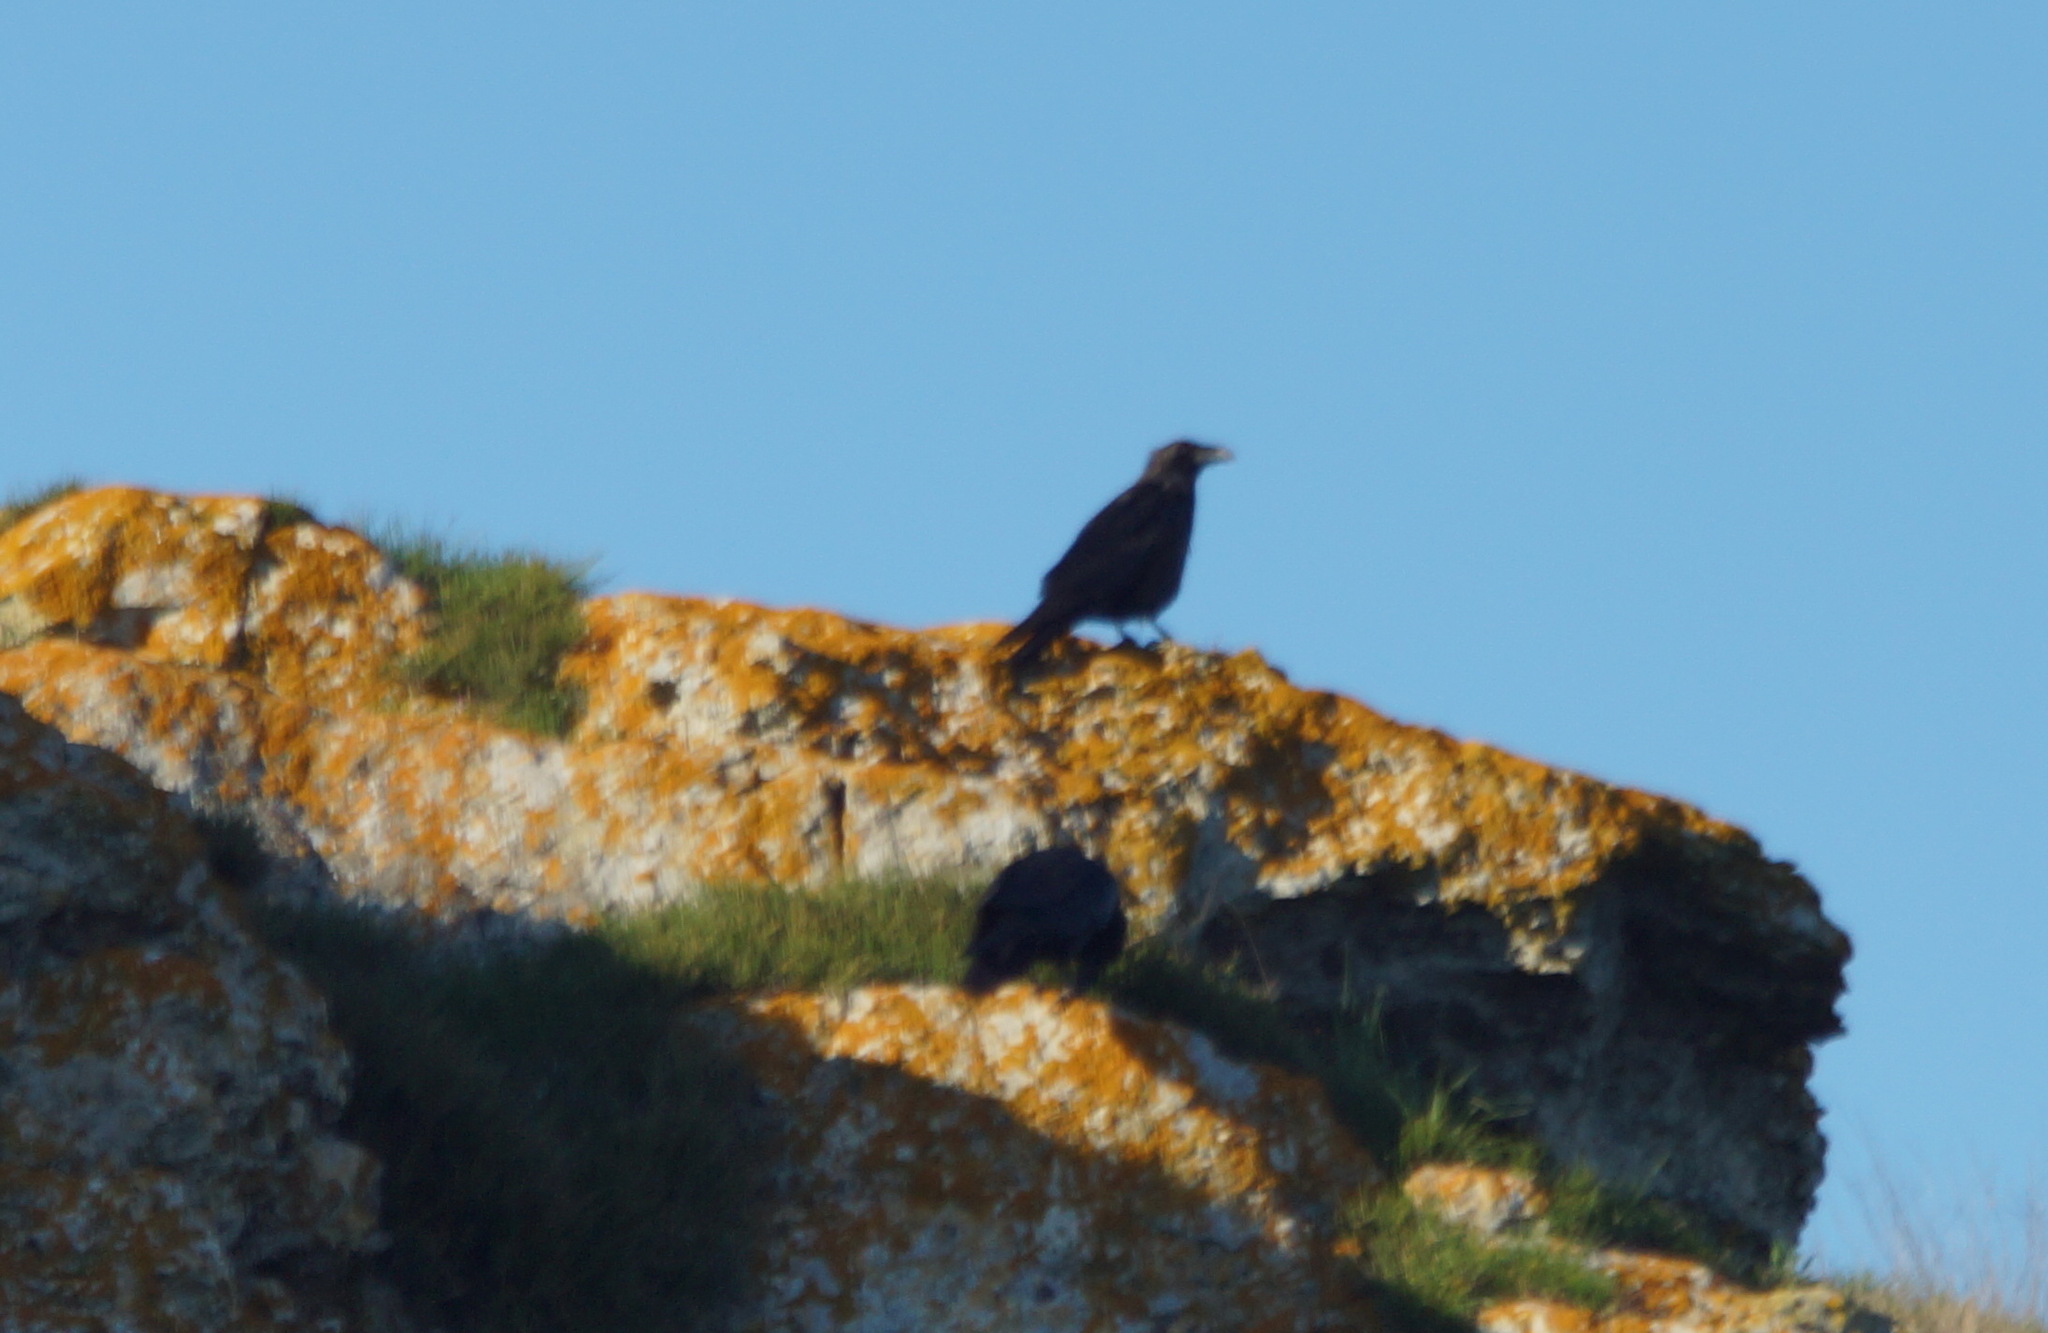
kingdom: Animalia
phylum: Chordata
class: Aves
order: Passeriformes
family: Corvidae
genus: Corvus
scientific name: Corvus corax
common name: Common raven
